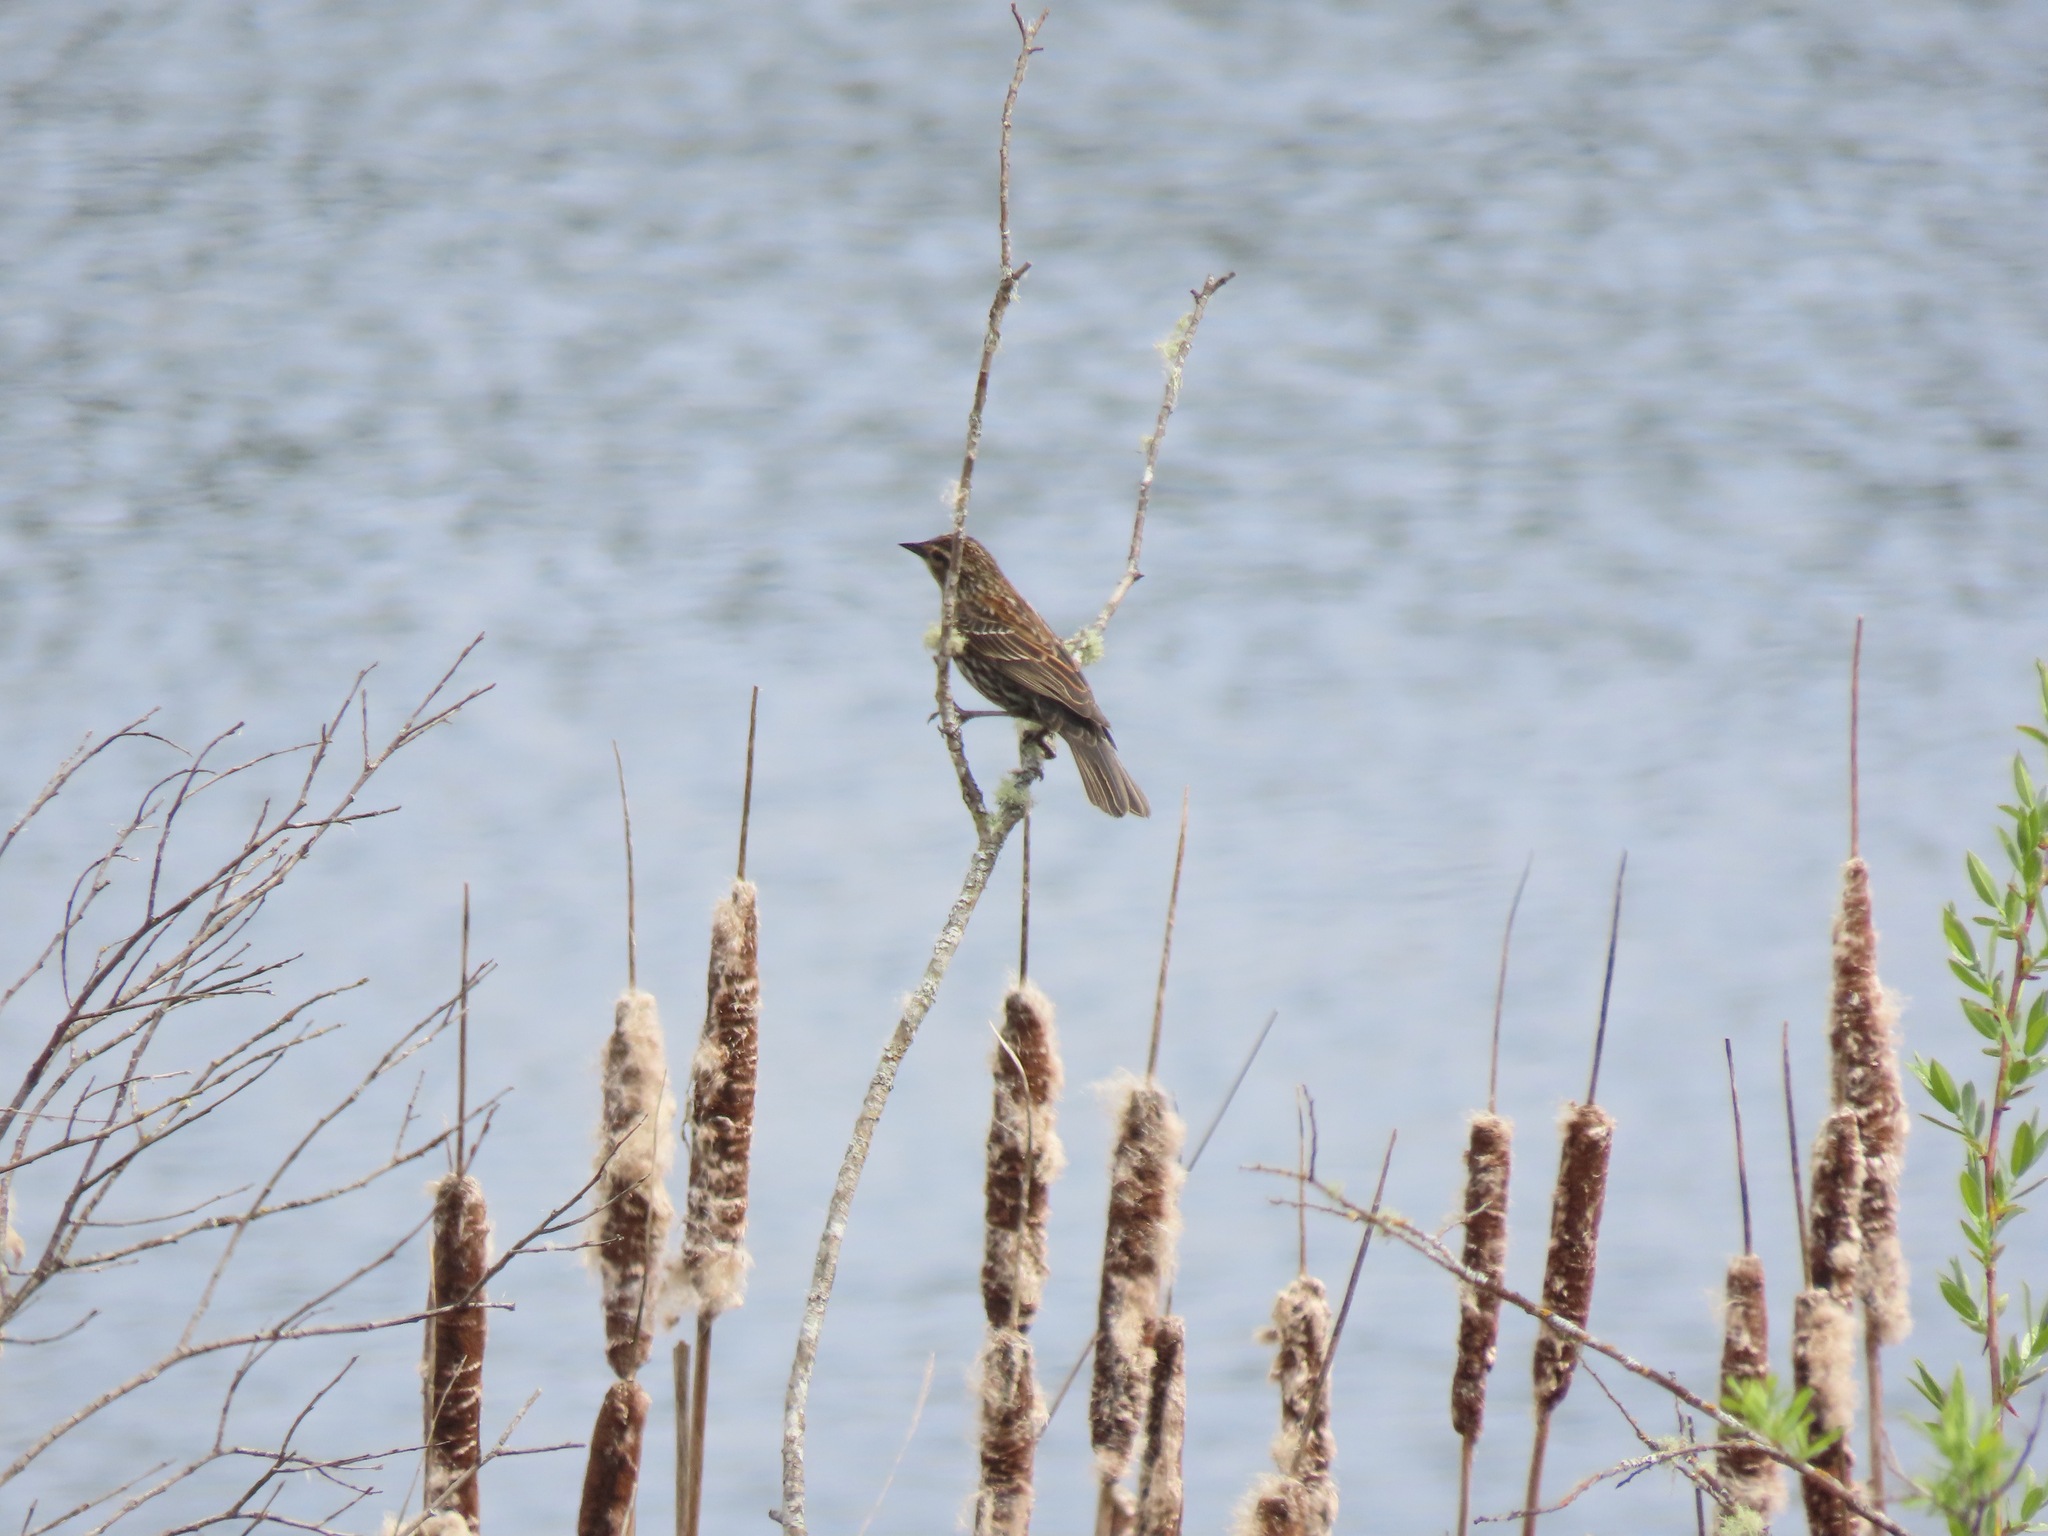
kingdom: Animalia
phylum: Chordata
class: Aves
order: Passeriformes
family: Icteridae
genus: Agelaius
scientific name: Agelaius phoeniceus
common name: Red-winged blackbird
